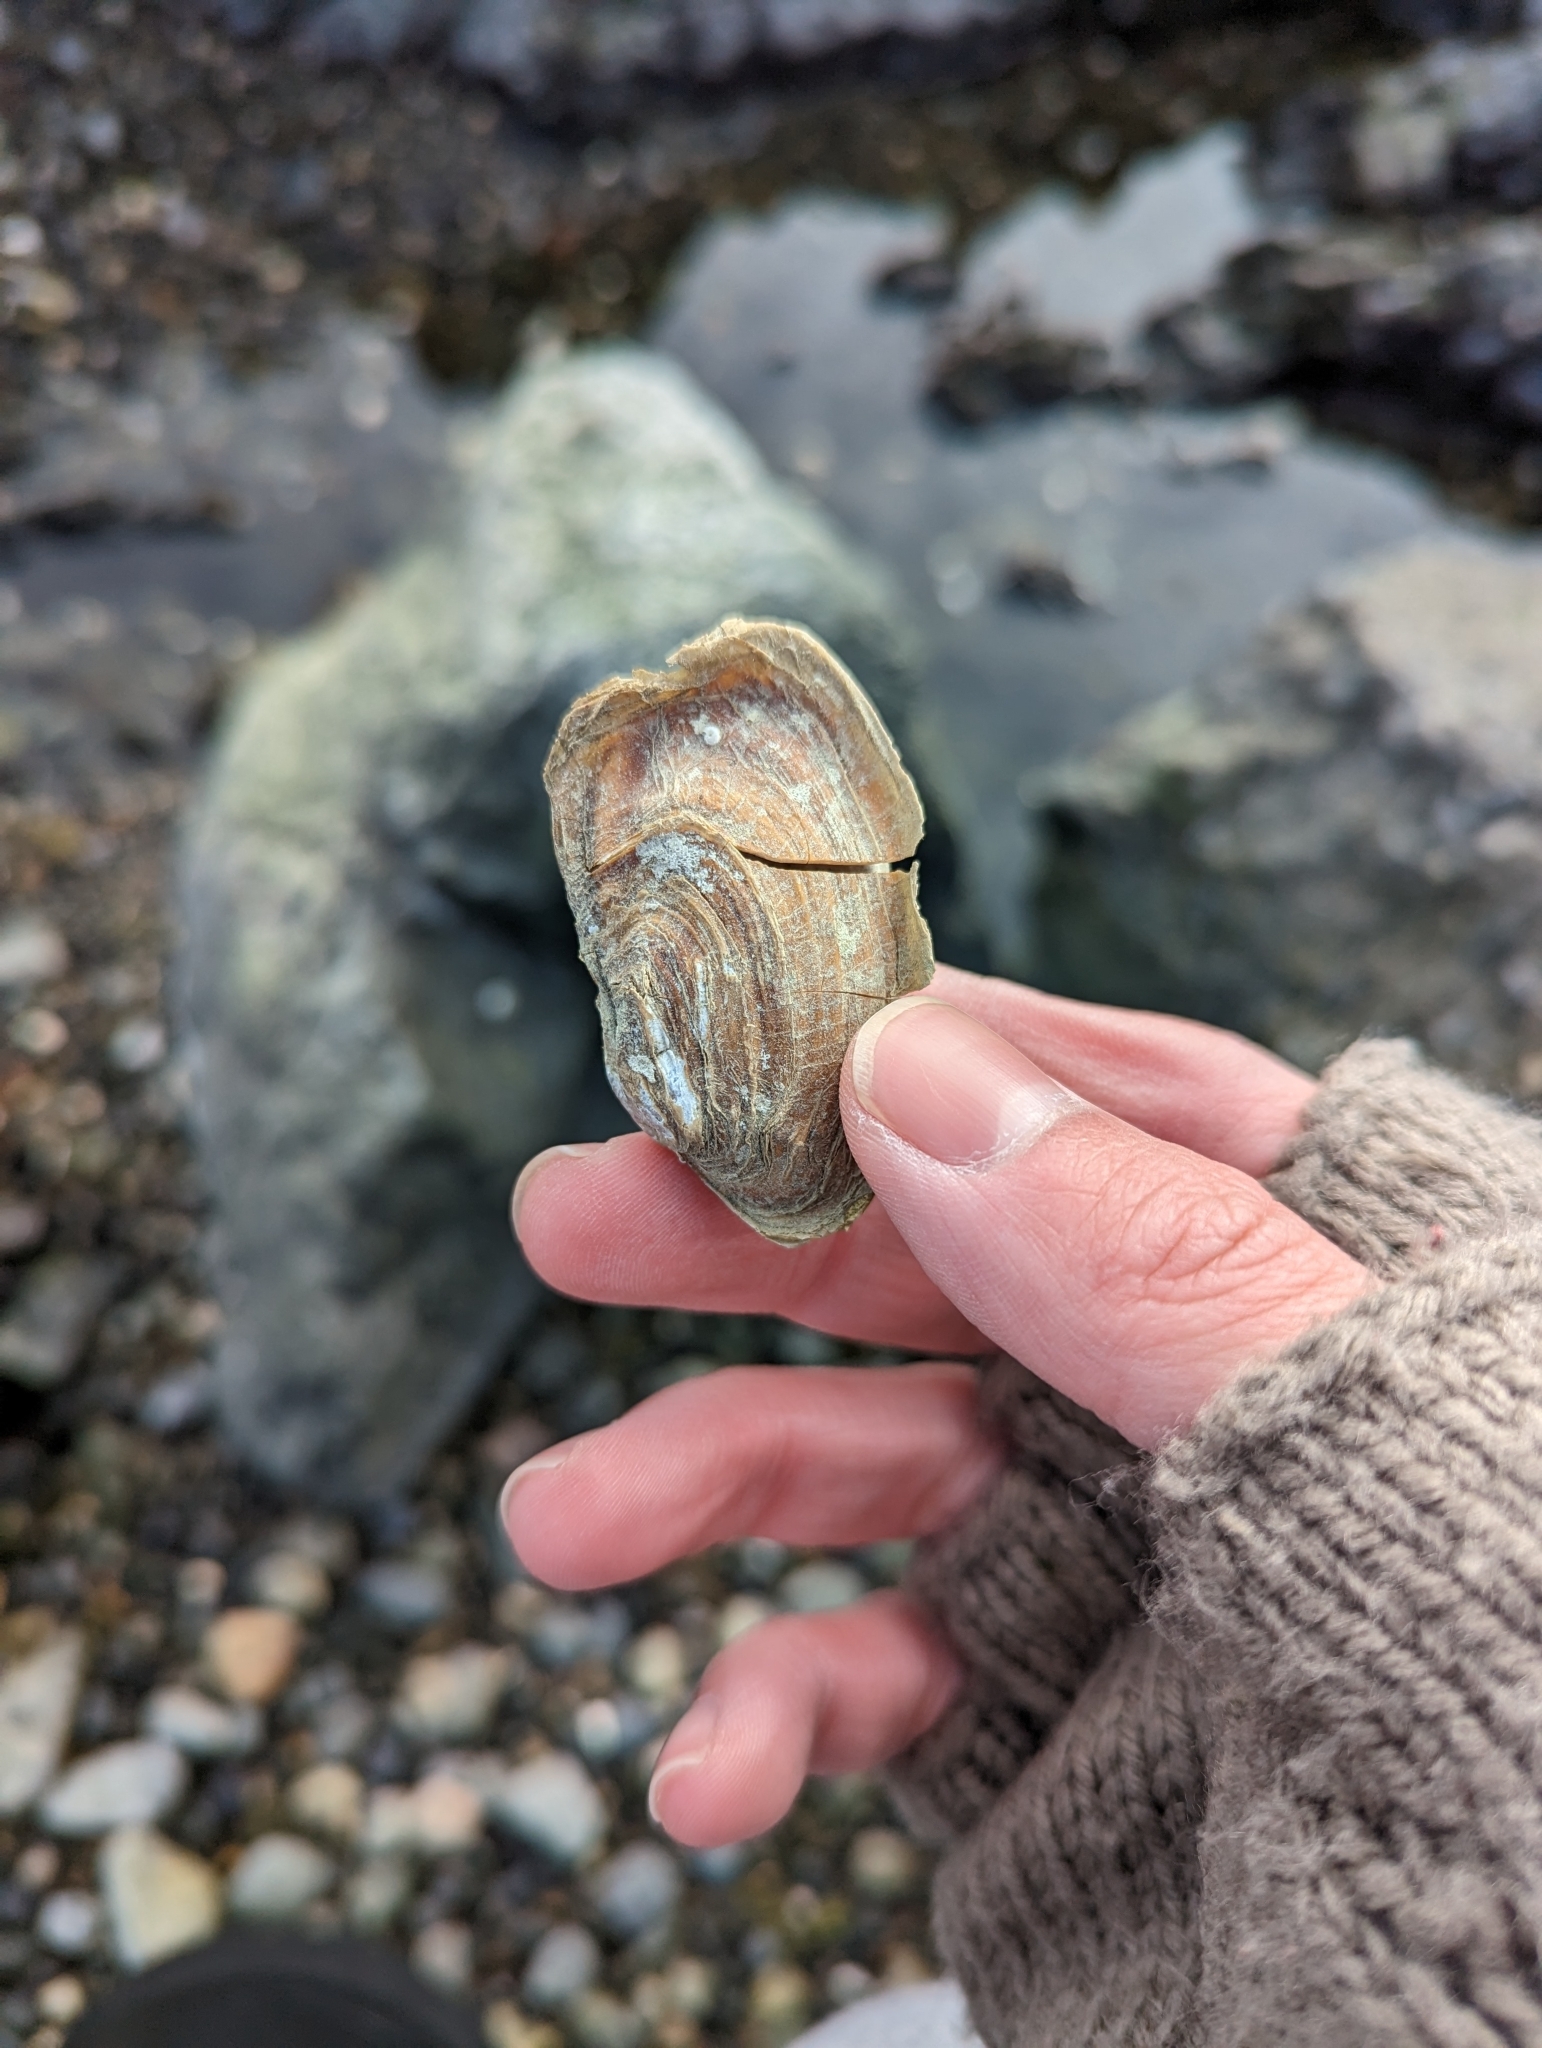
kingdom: Animalia
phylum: Mollusca
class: Bivalvia
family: Lyonsiidae
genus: Entodesma
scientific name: Entodesma navicula
